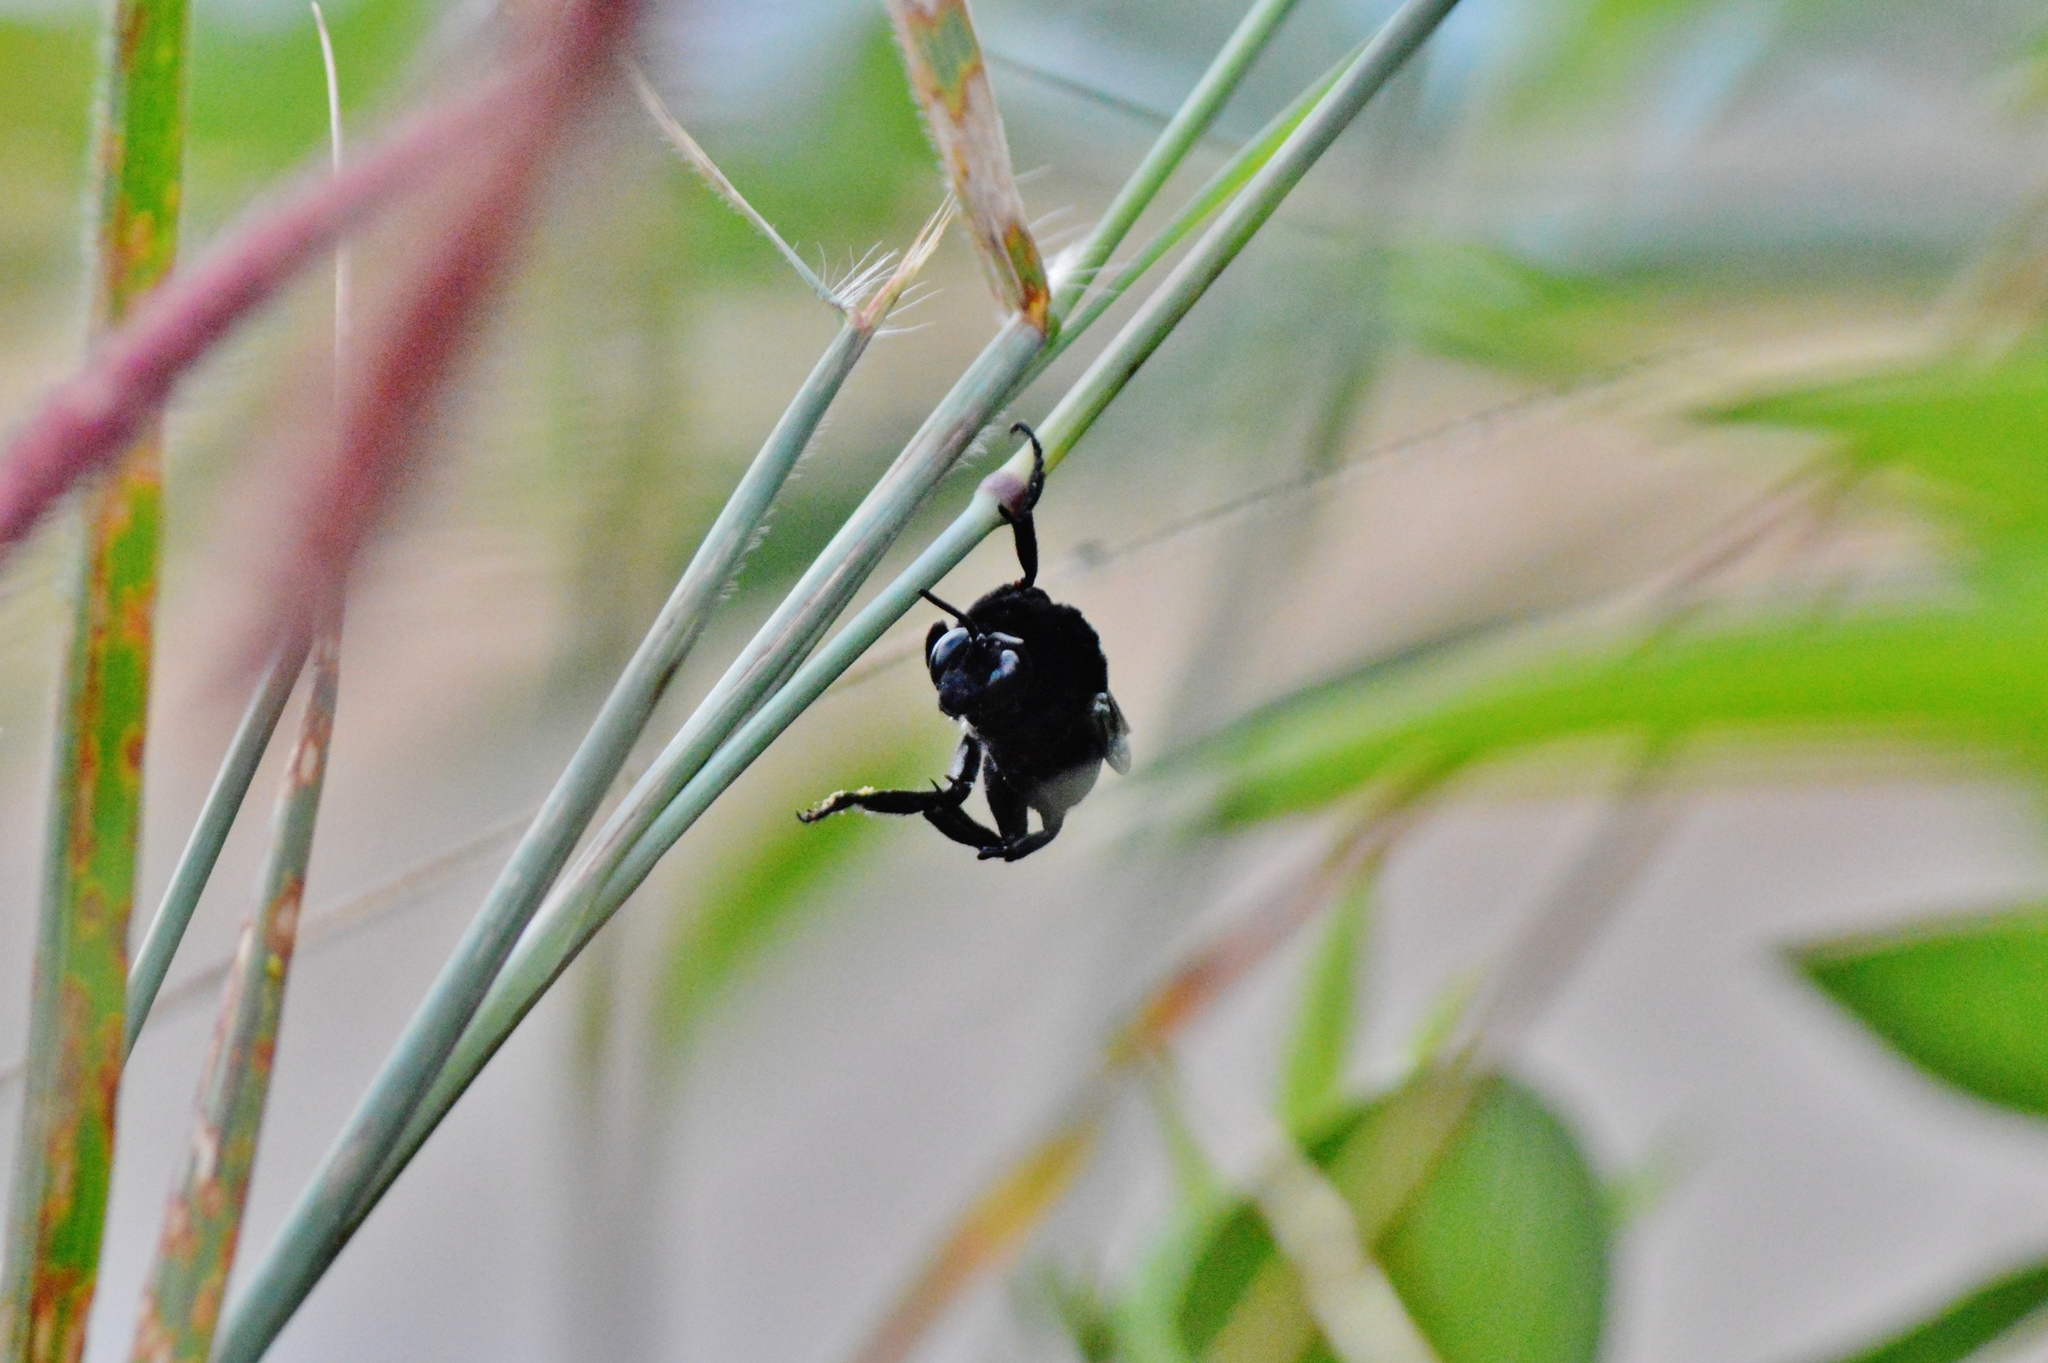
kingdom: Animalia
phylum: Arthropoda
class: Insecta
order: Hymenoptera
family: Apidae
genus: Hopliphora
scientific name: Hopliphora funereus
